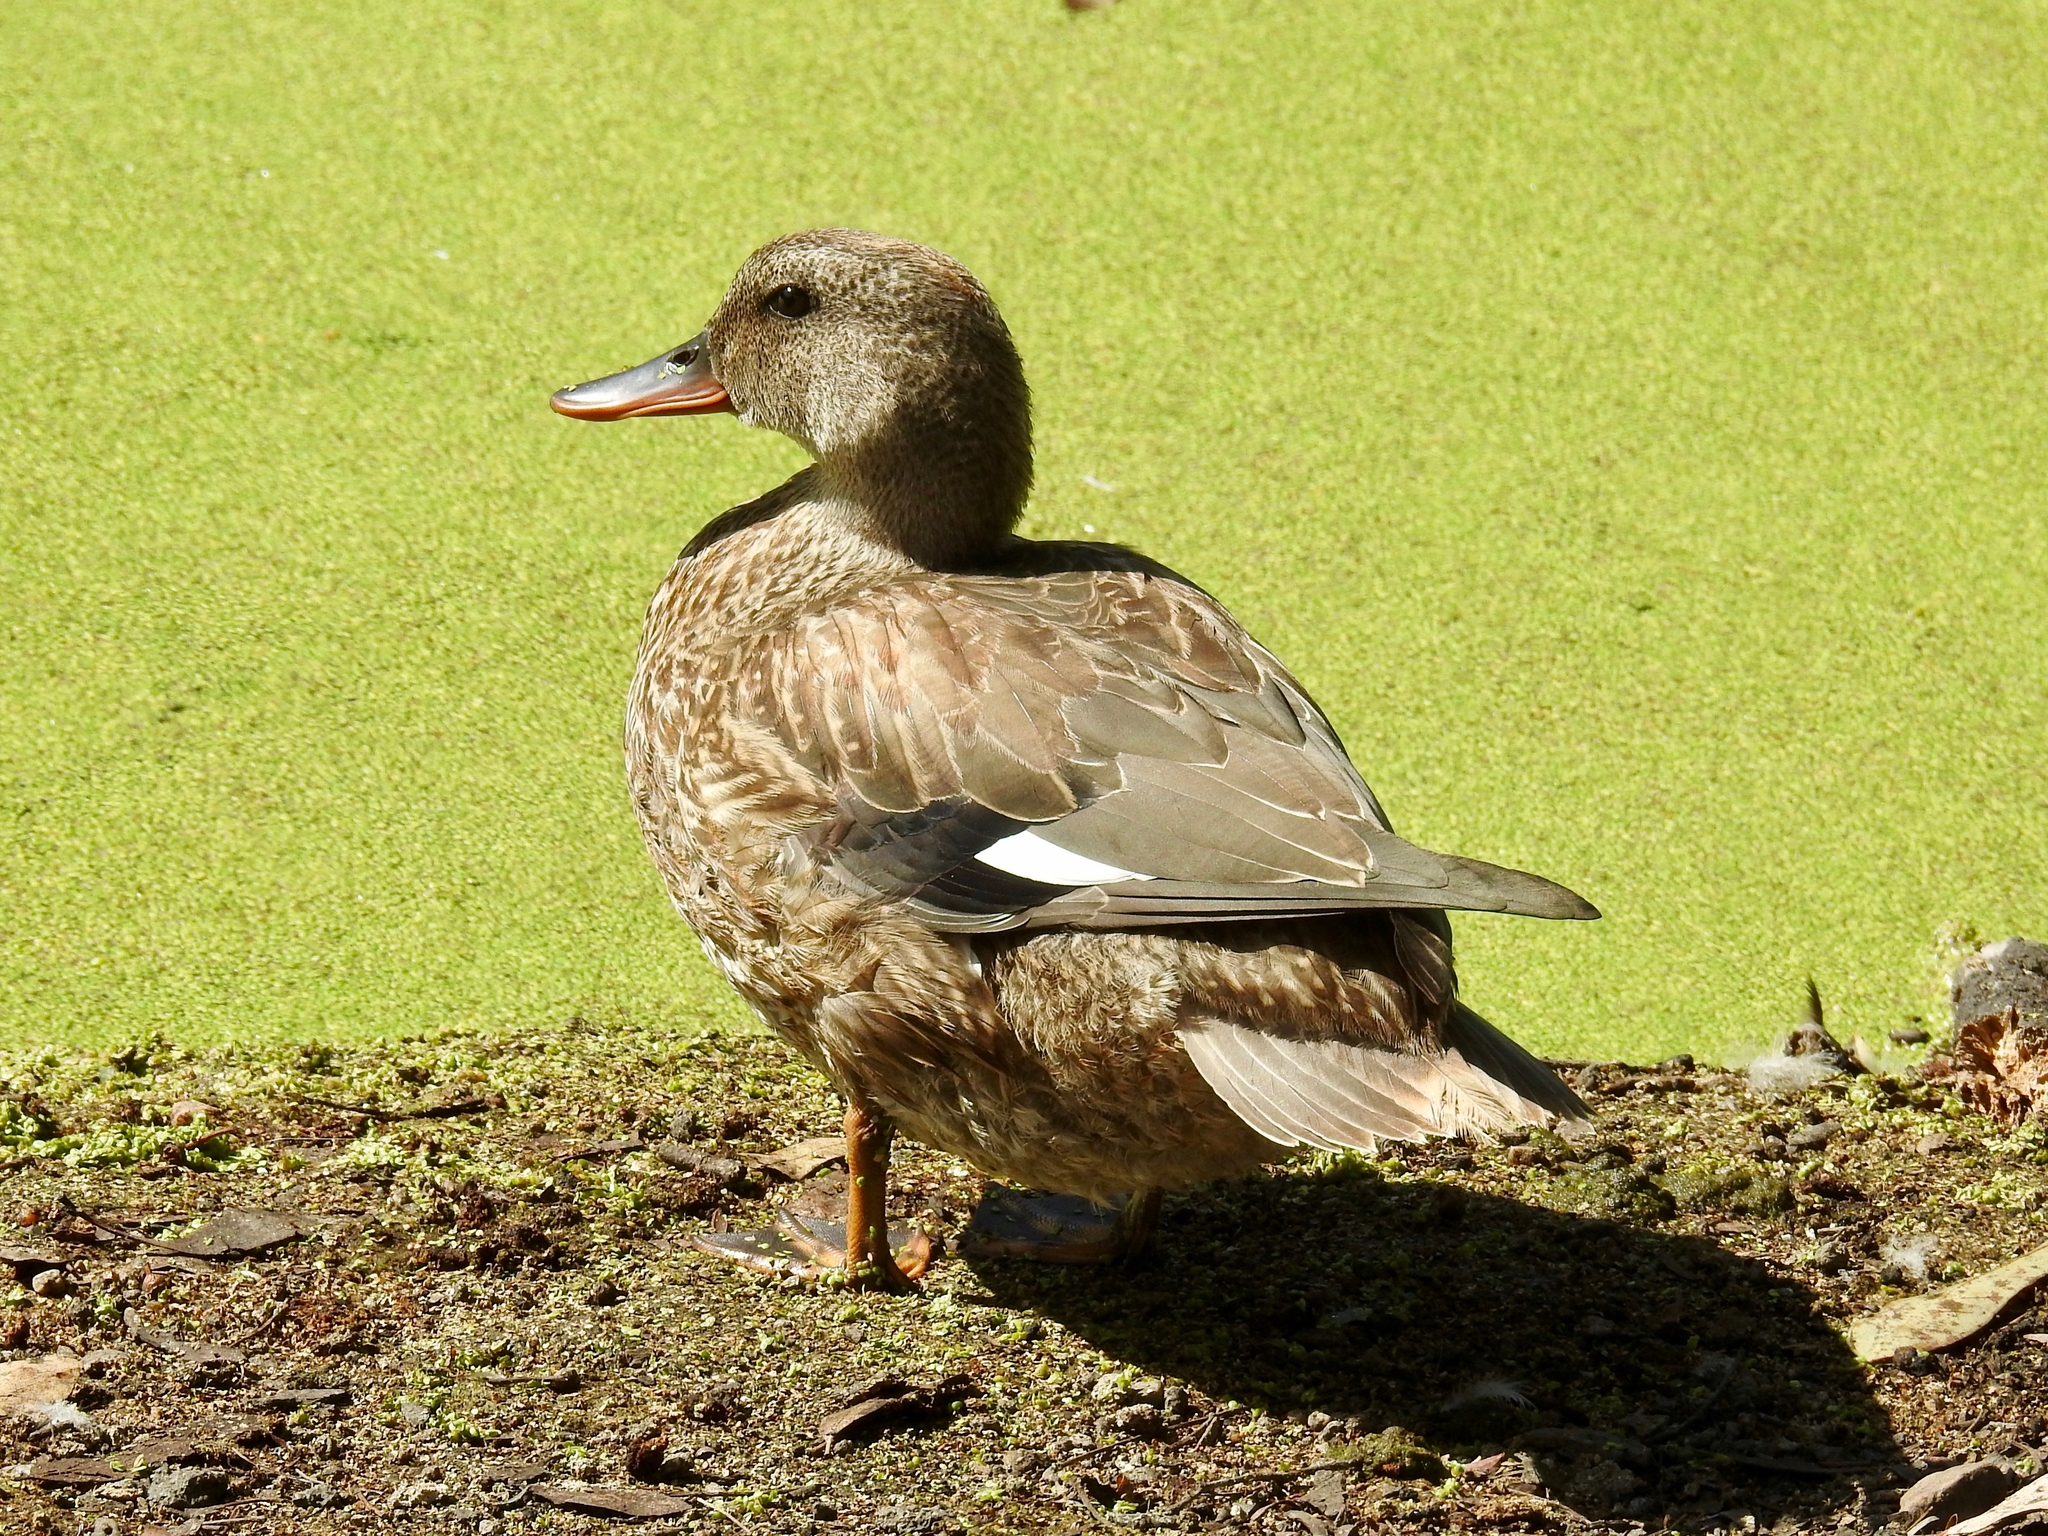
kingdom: Animalia
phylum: Chordata
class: Aves
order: Anseriformes
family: Anatidae
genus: Mareca
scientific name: Mareca strepera
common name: Gadwall
